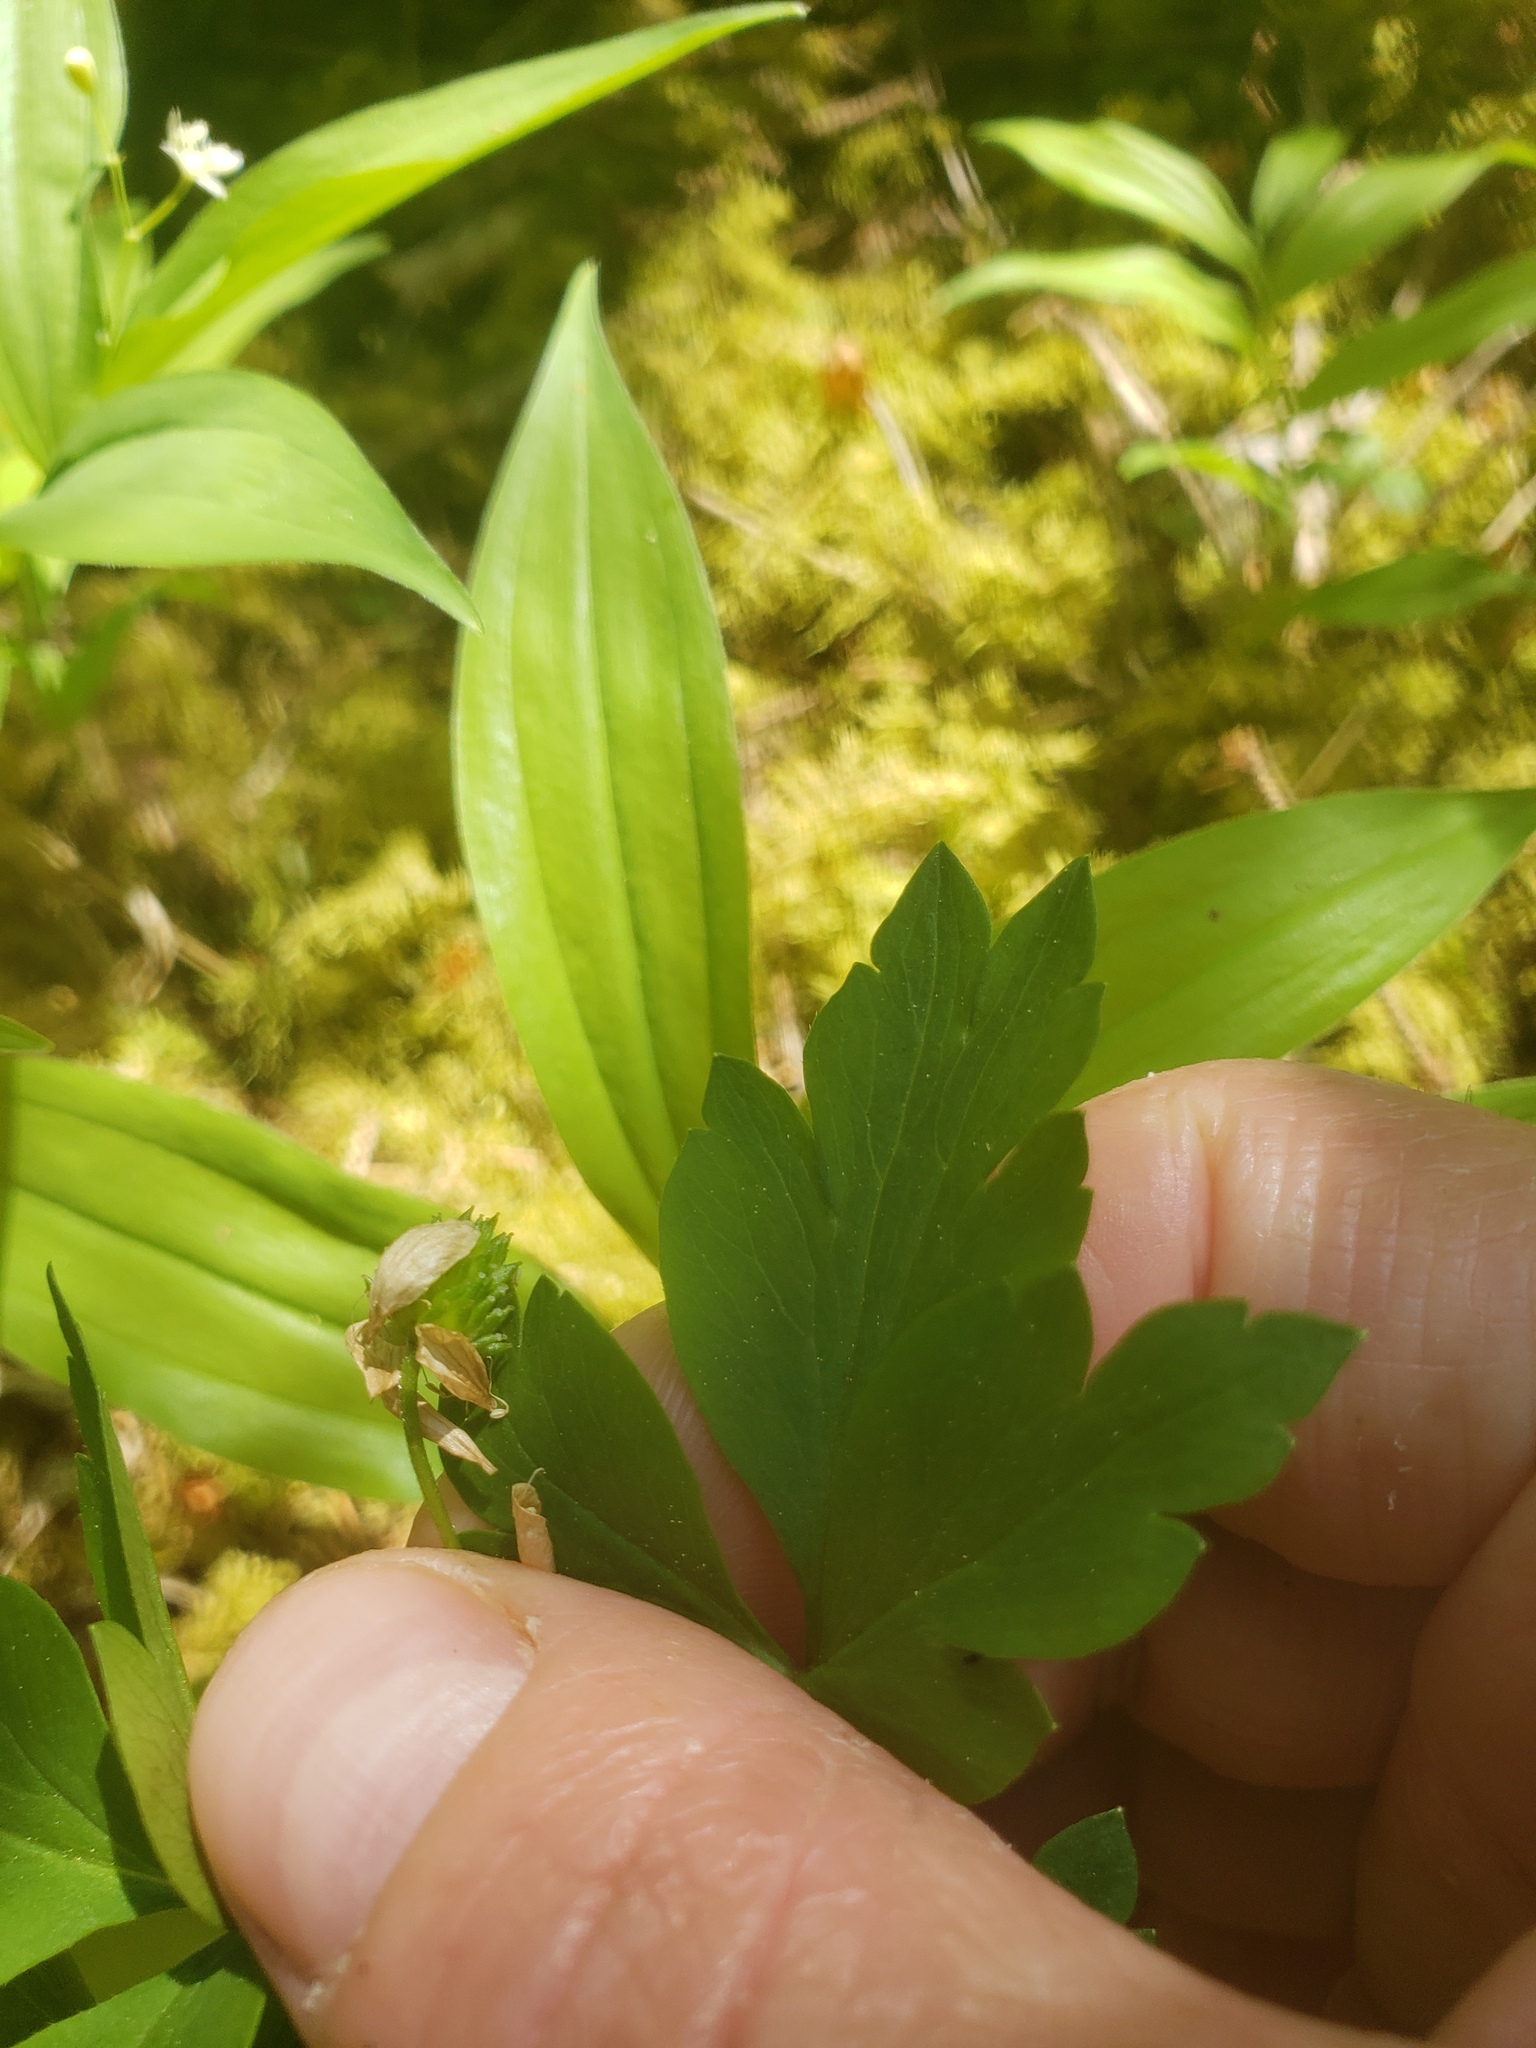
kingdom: Plantae
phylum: Tracheophyta
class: Magnoliopsida
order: Ranunculales
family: Ranunculaceae
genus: Anemone
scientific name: Anemone
